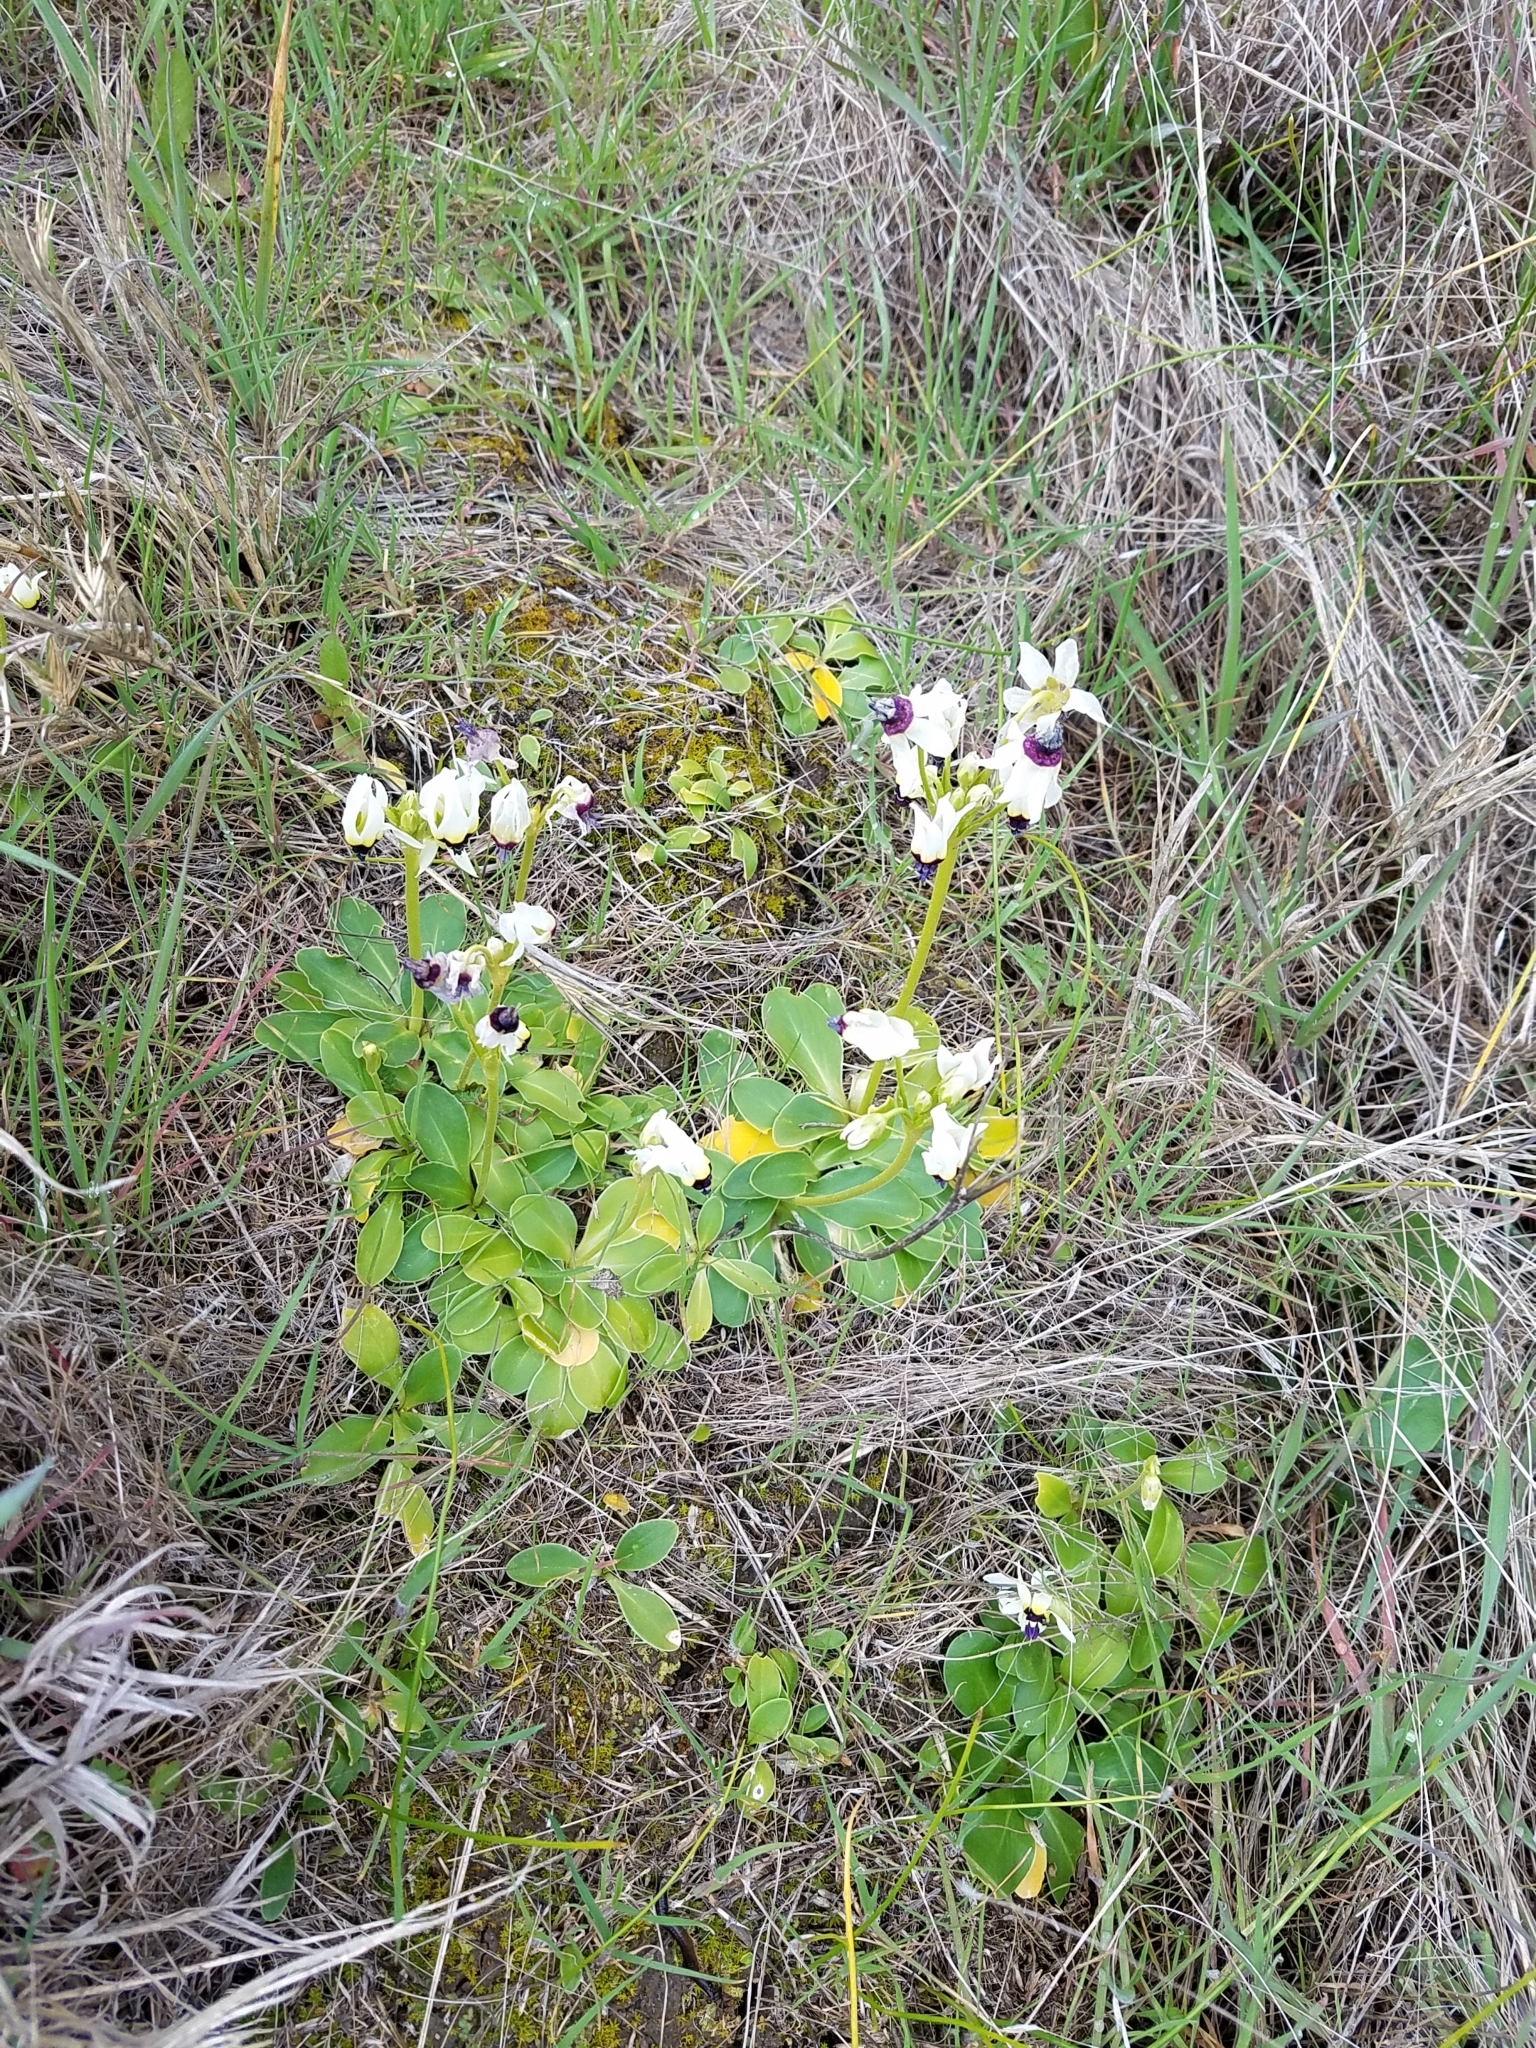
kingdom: Plantae
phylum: Tracheophyta
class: Magnoliopsida
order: Ericales
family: Primulaceae
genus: Dodecatheon
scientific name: Dodecatheon clevelandii
